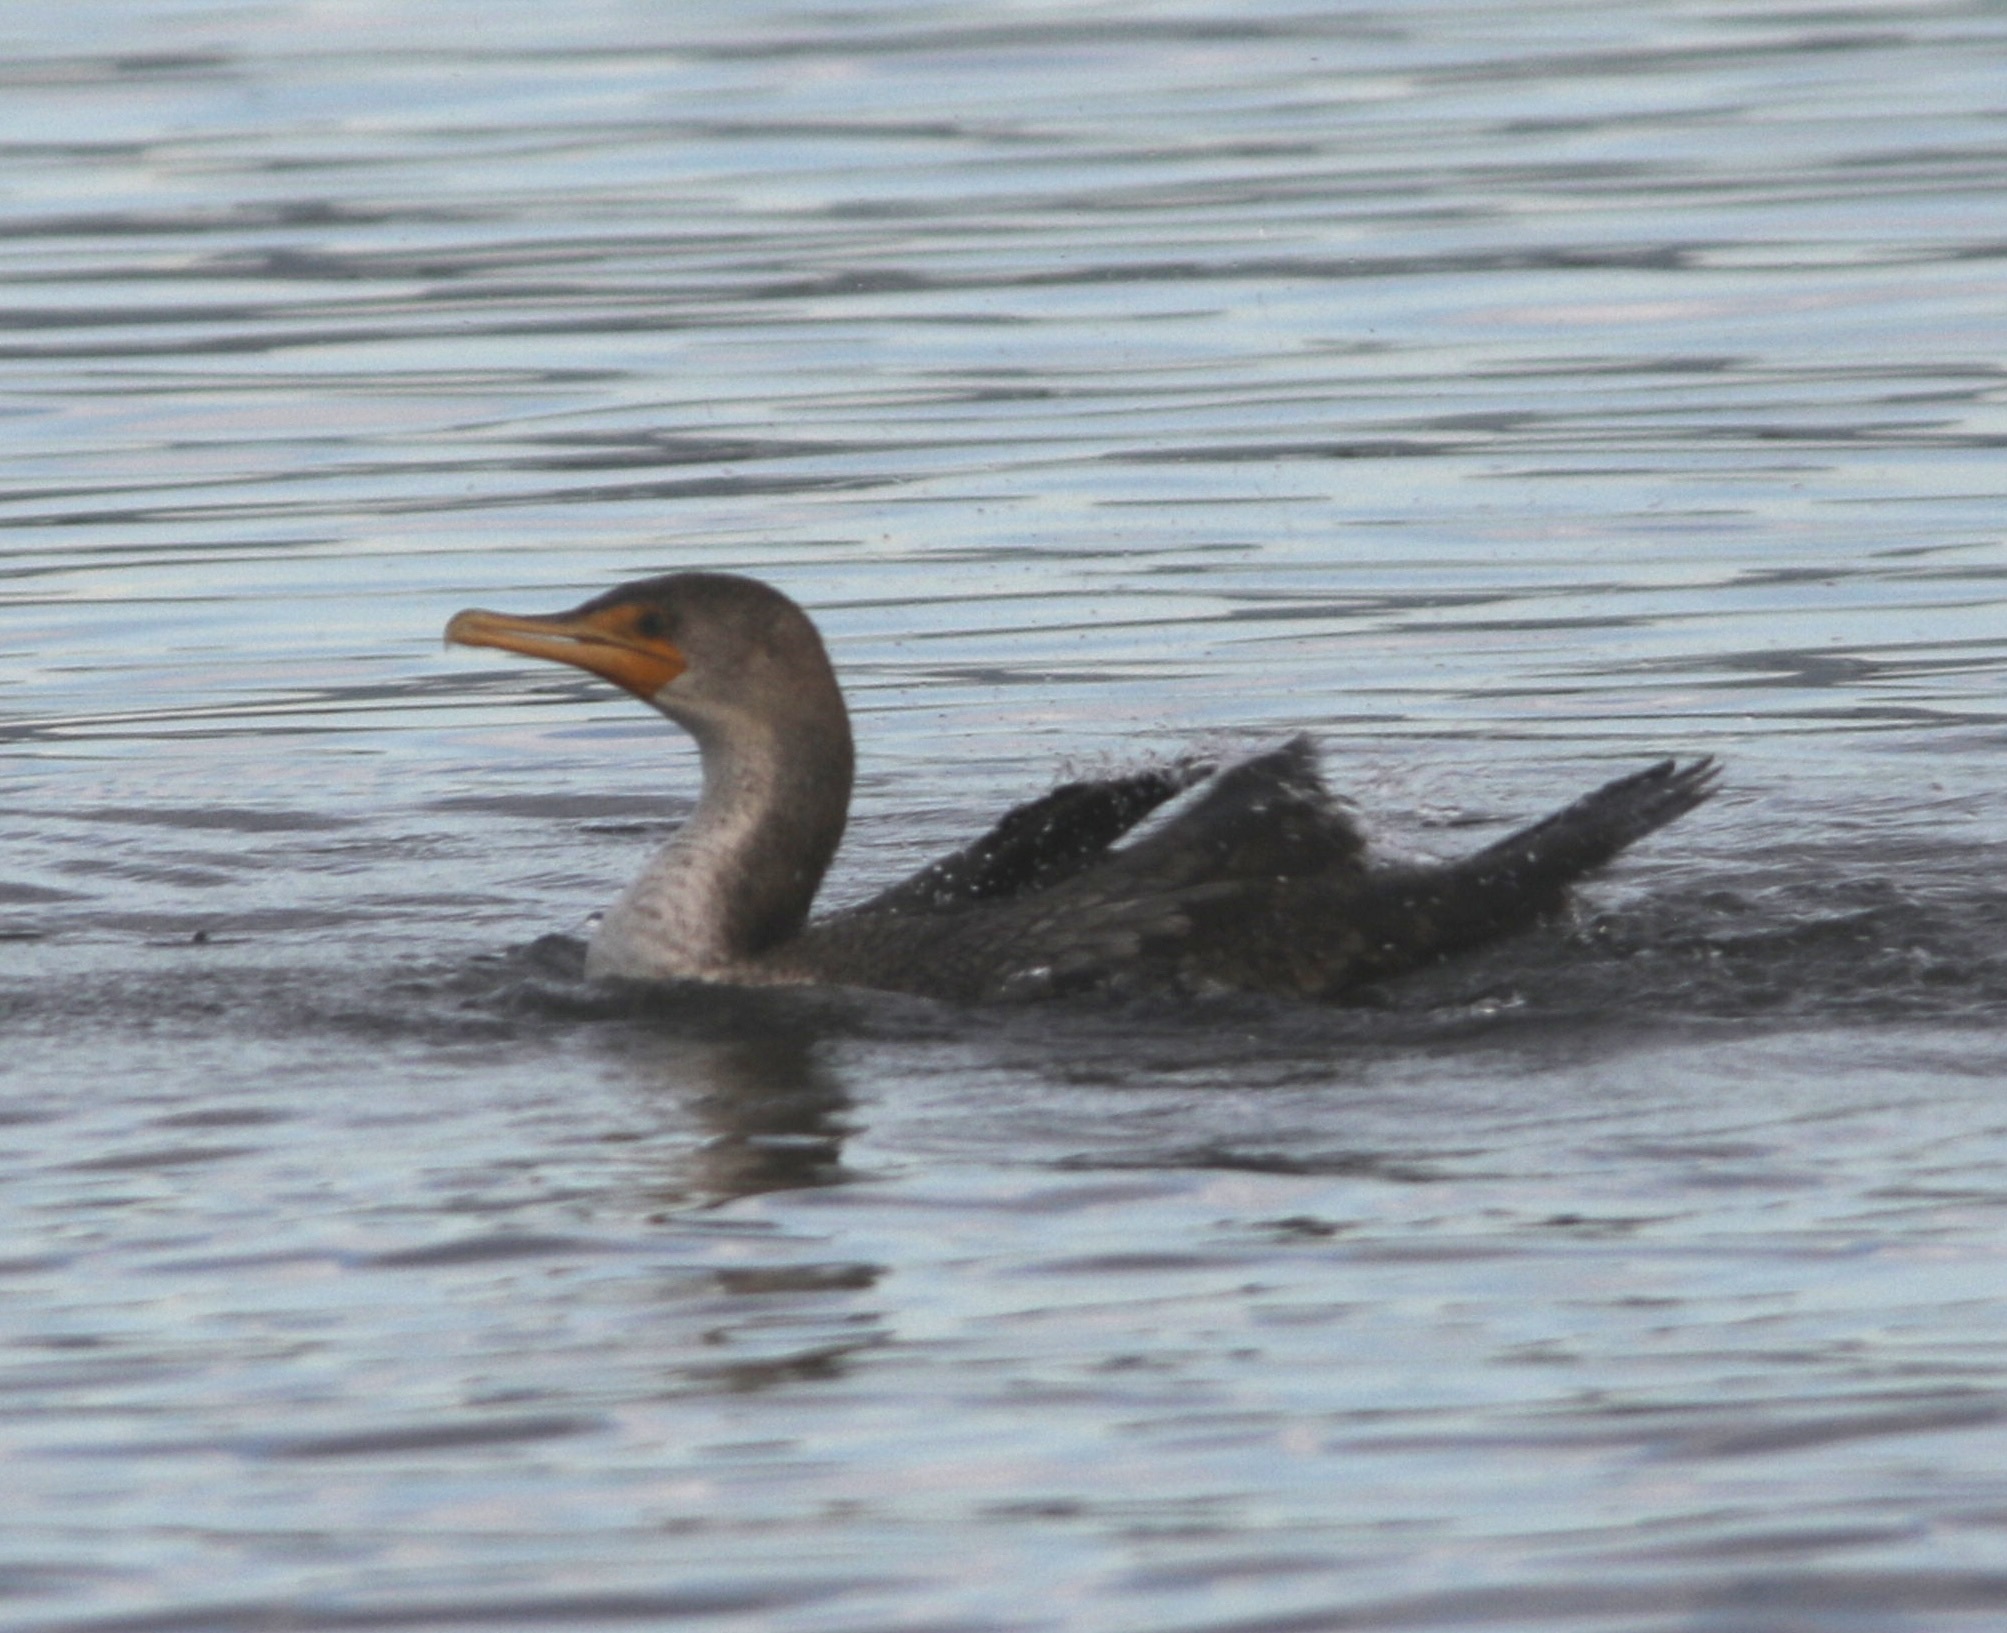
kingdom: Animalia
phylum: Chordata
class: Aves
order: Suliformes
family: Phalacrocoracidae
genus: Phalacrocorax
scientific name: Phalacrocorax auritus
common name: Double-crested cormorant
